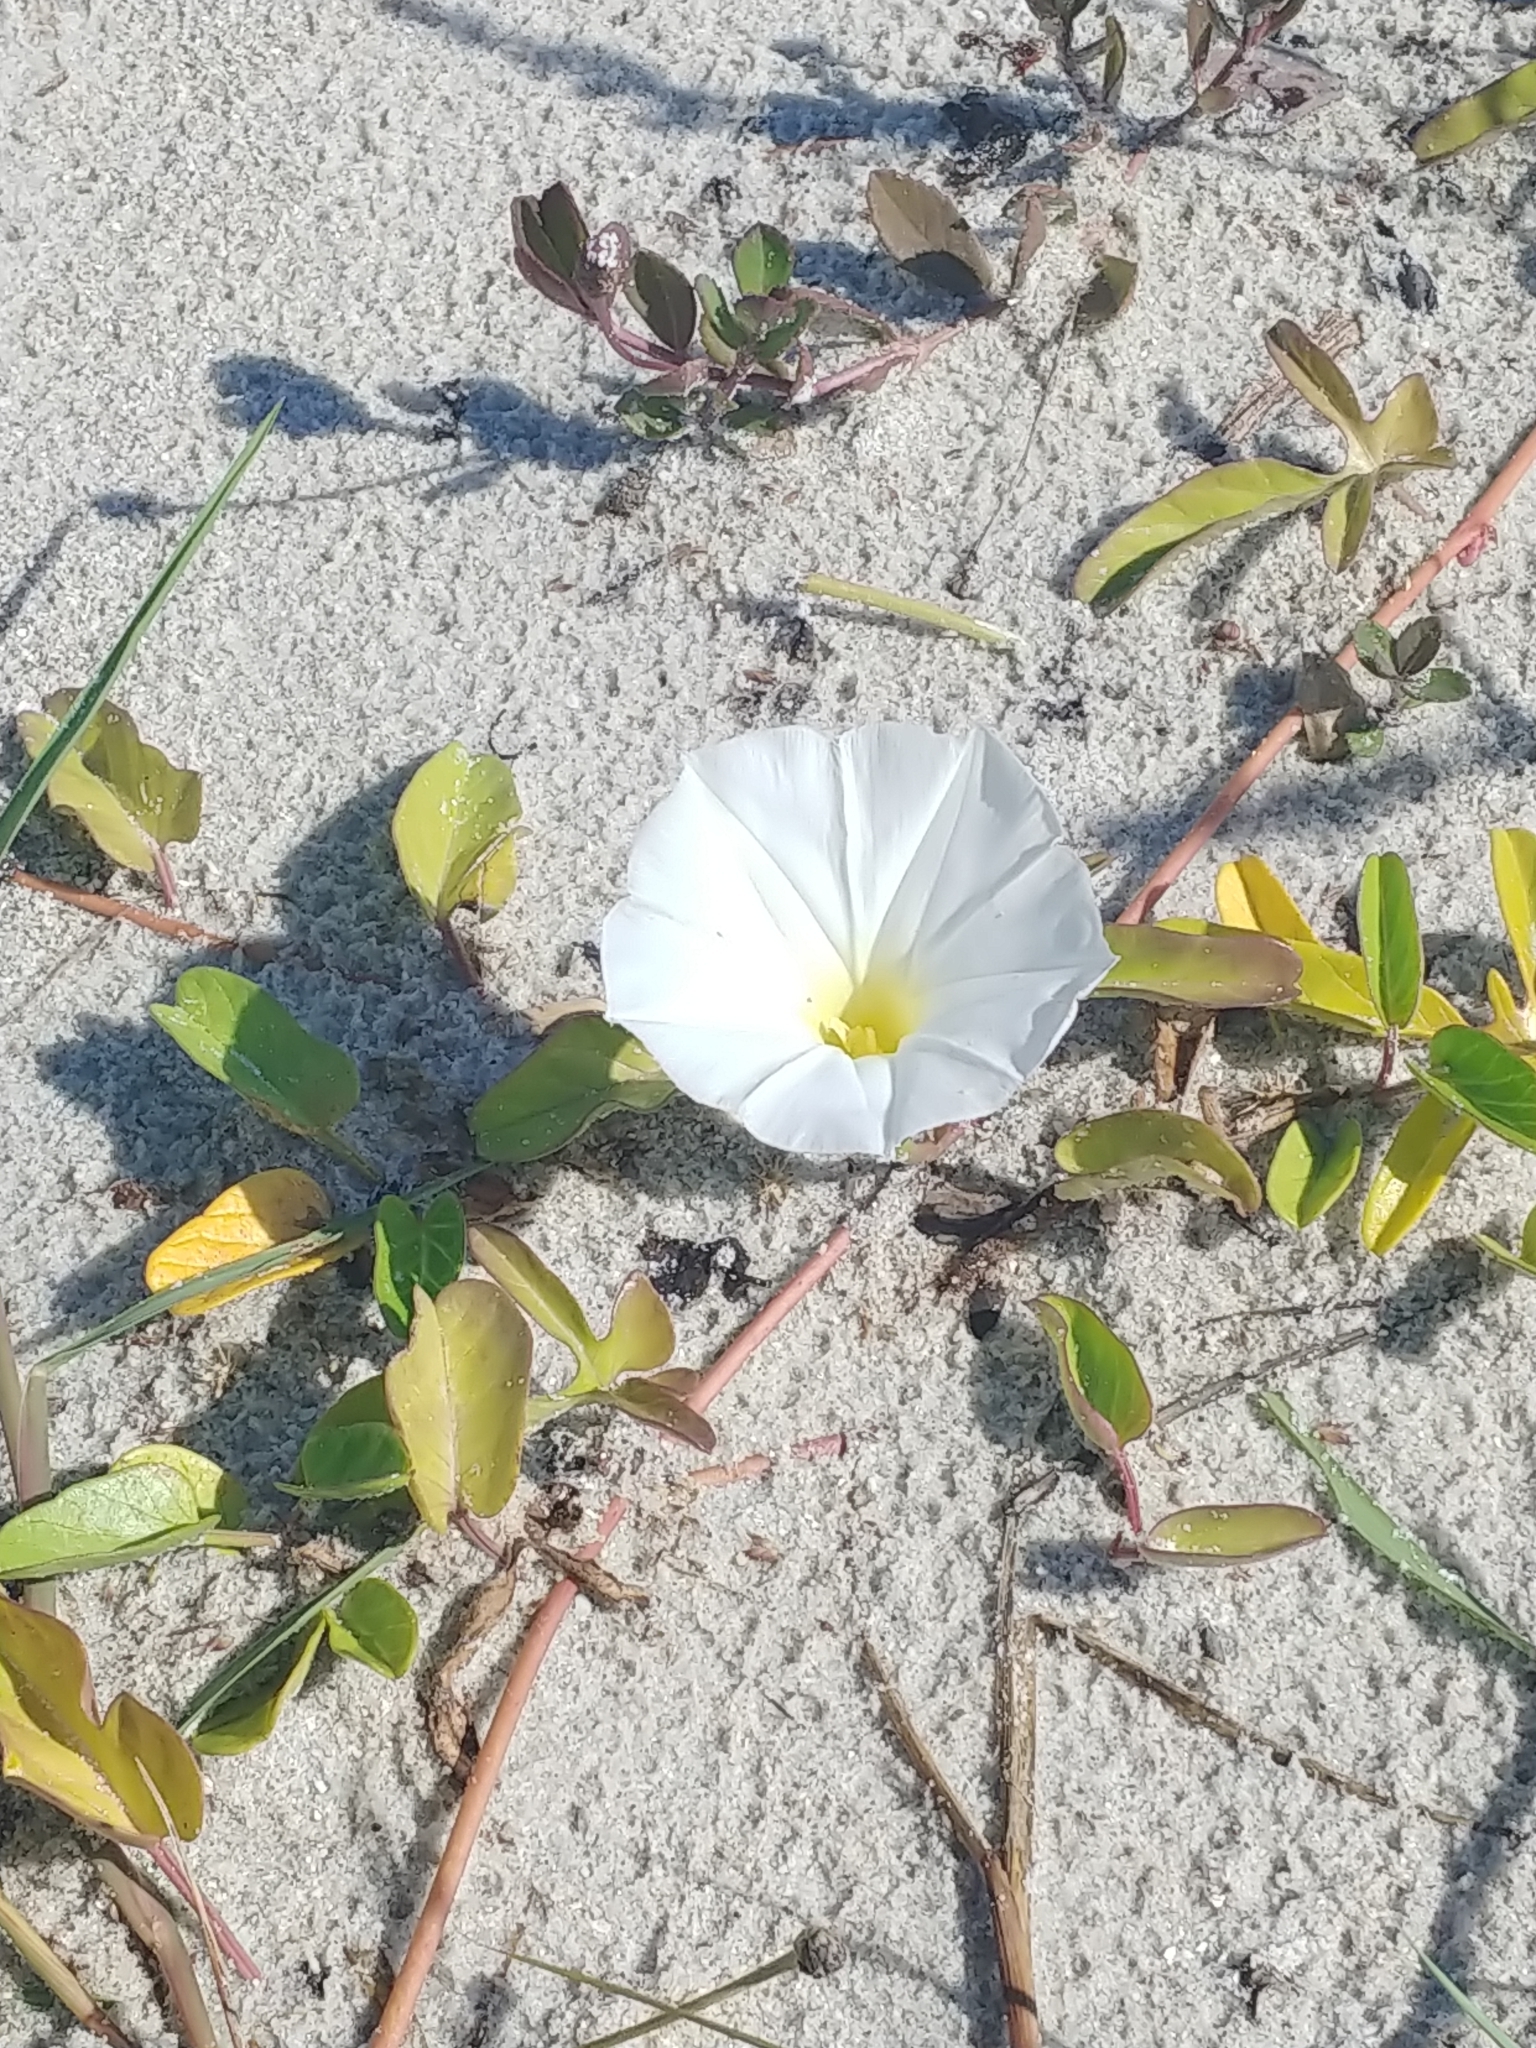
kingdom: Plantae
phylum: Tracheophyta
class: Magnoliopsida
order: Solanales
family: Convolvulaceae
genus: Ipomoea
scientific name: Ipomoea imperati
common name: Fiddle-leaf morning-glory
